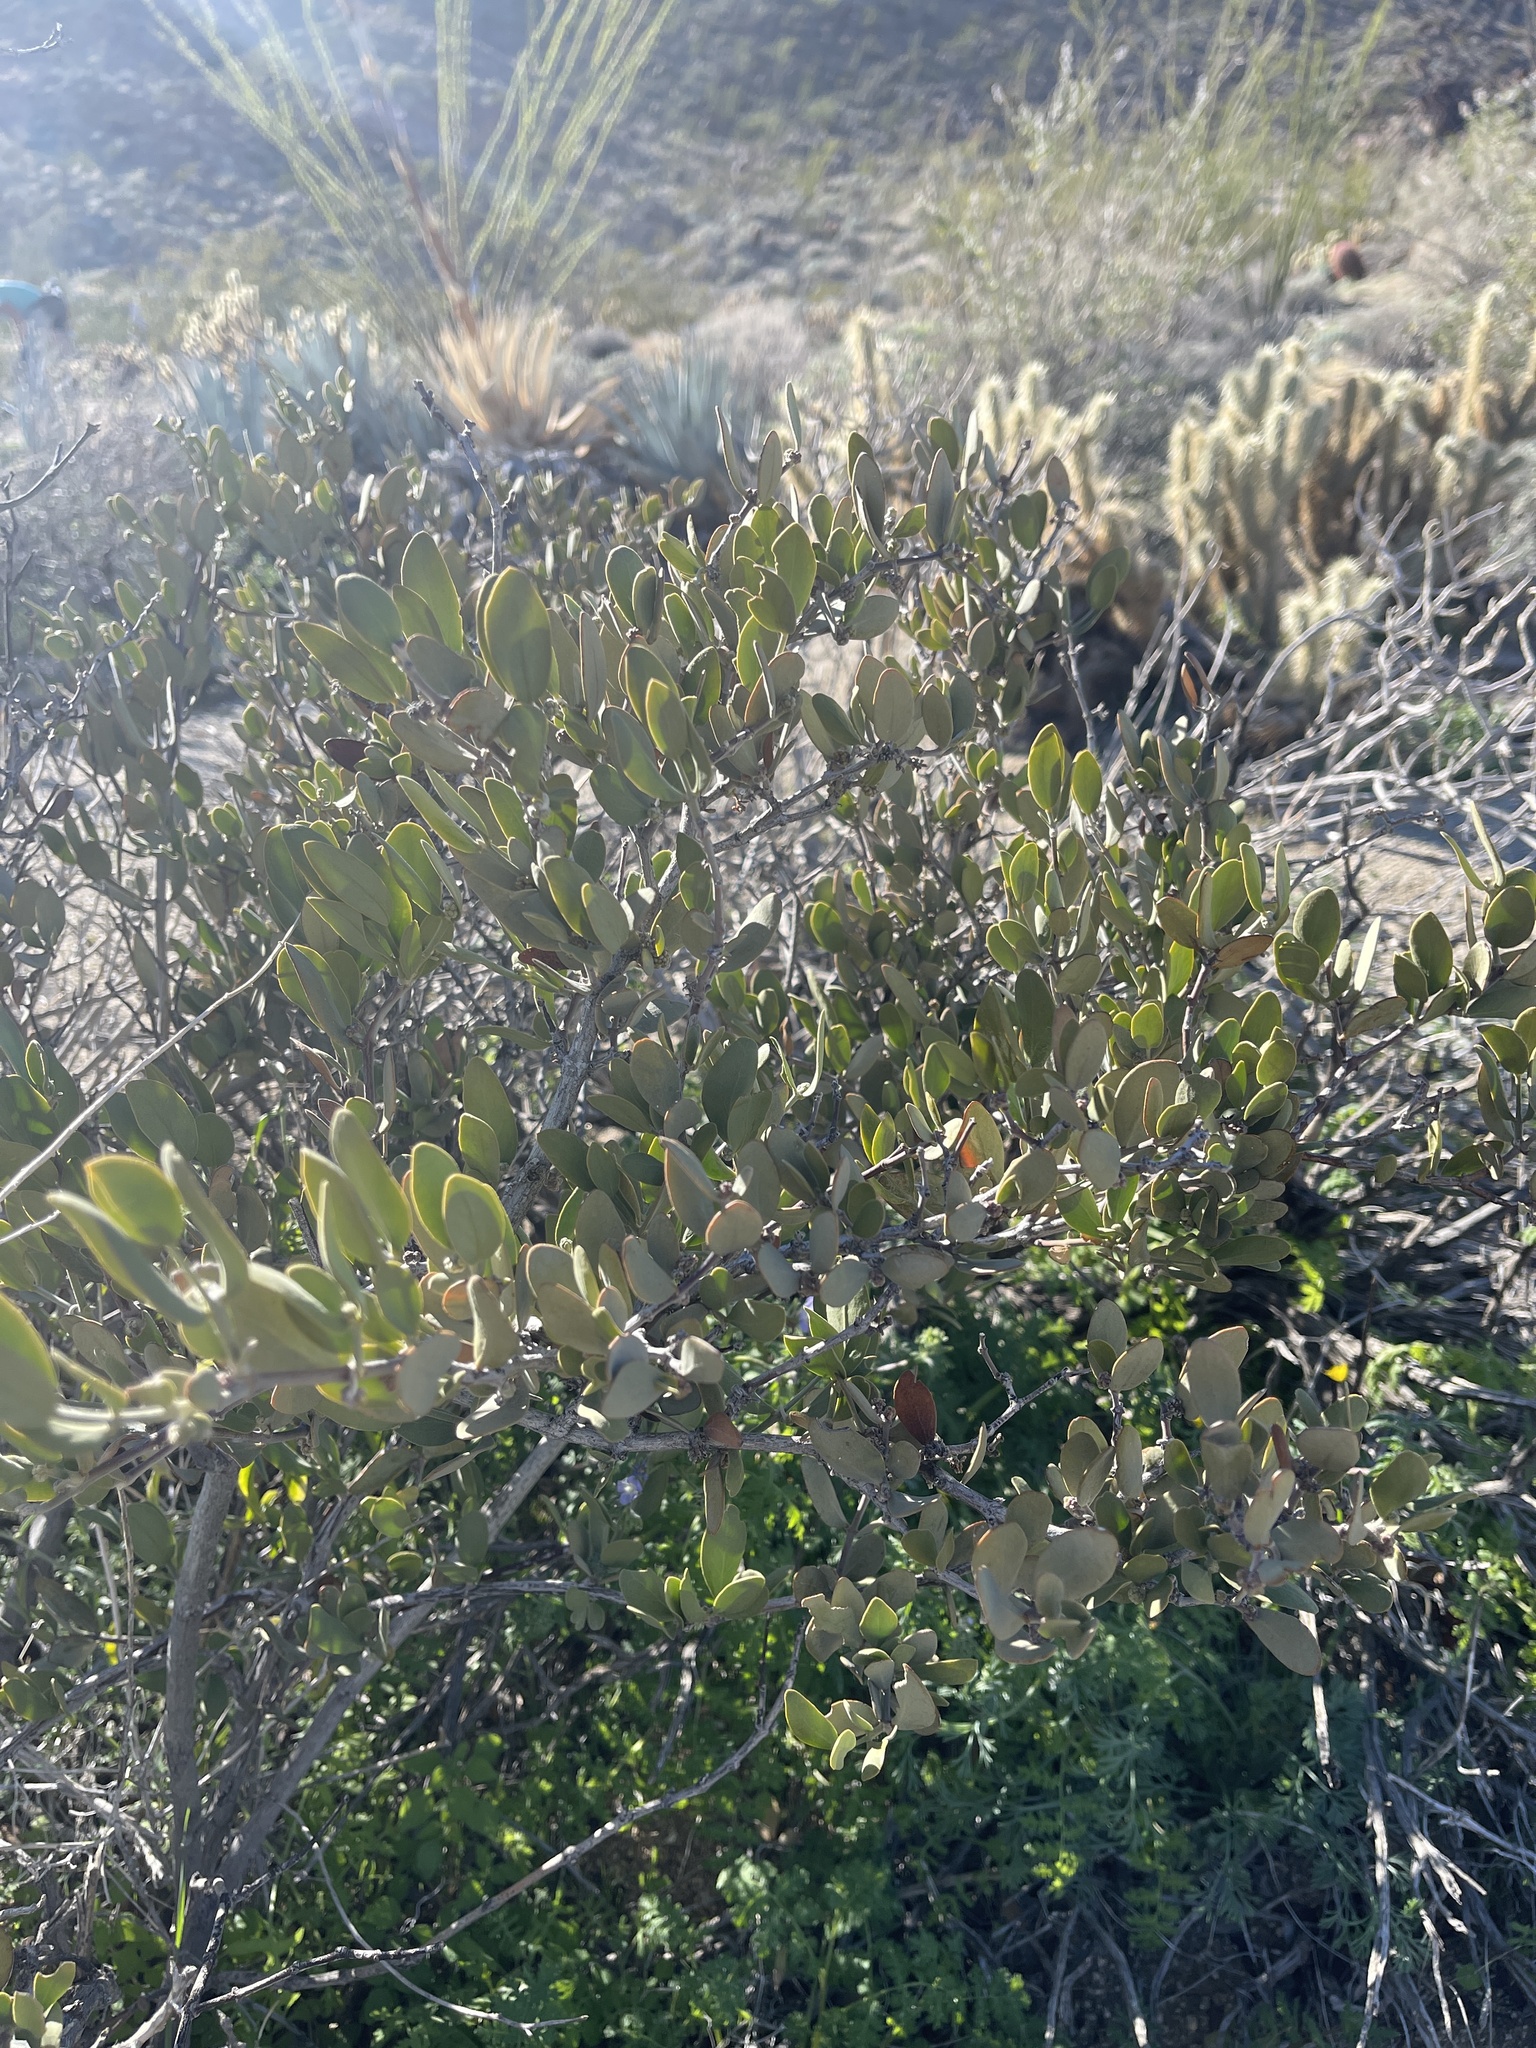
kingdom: Plantae
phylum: Tracheophyta
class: Magnoliopsida
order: Caryophyllales
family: Simmondsiaceae
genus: Simmondsia
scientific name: Simmondsia chinensis
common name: Jojoba
